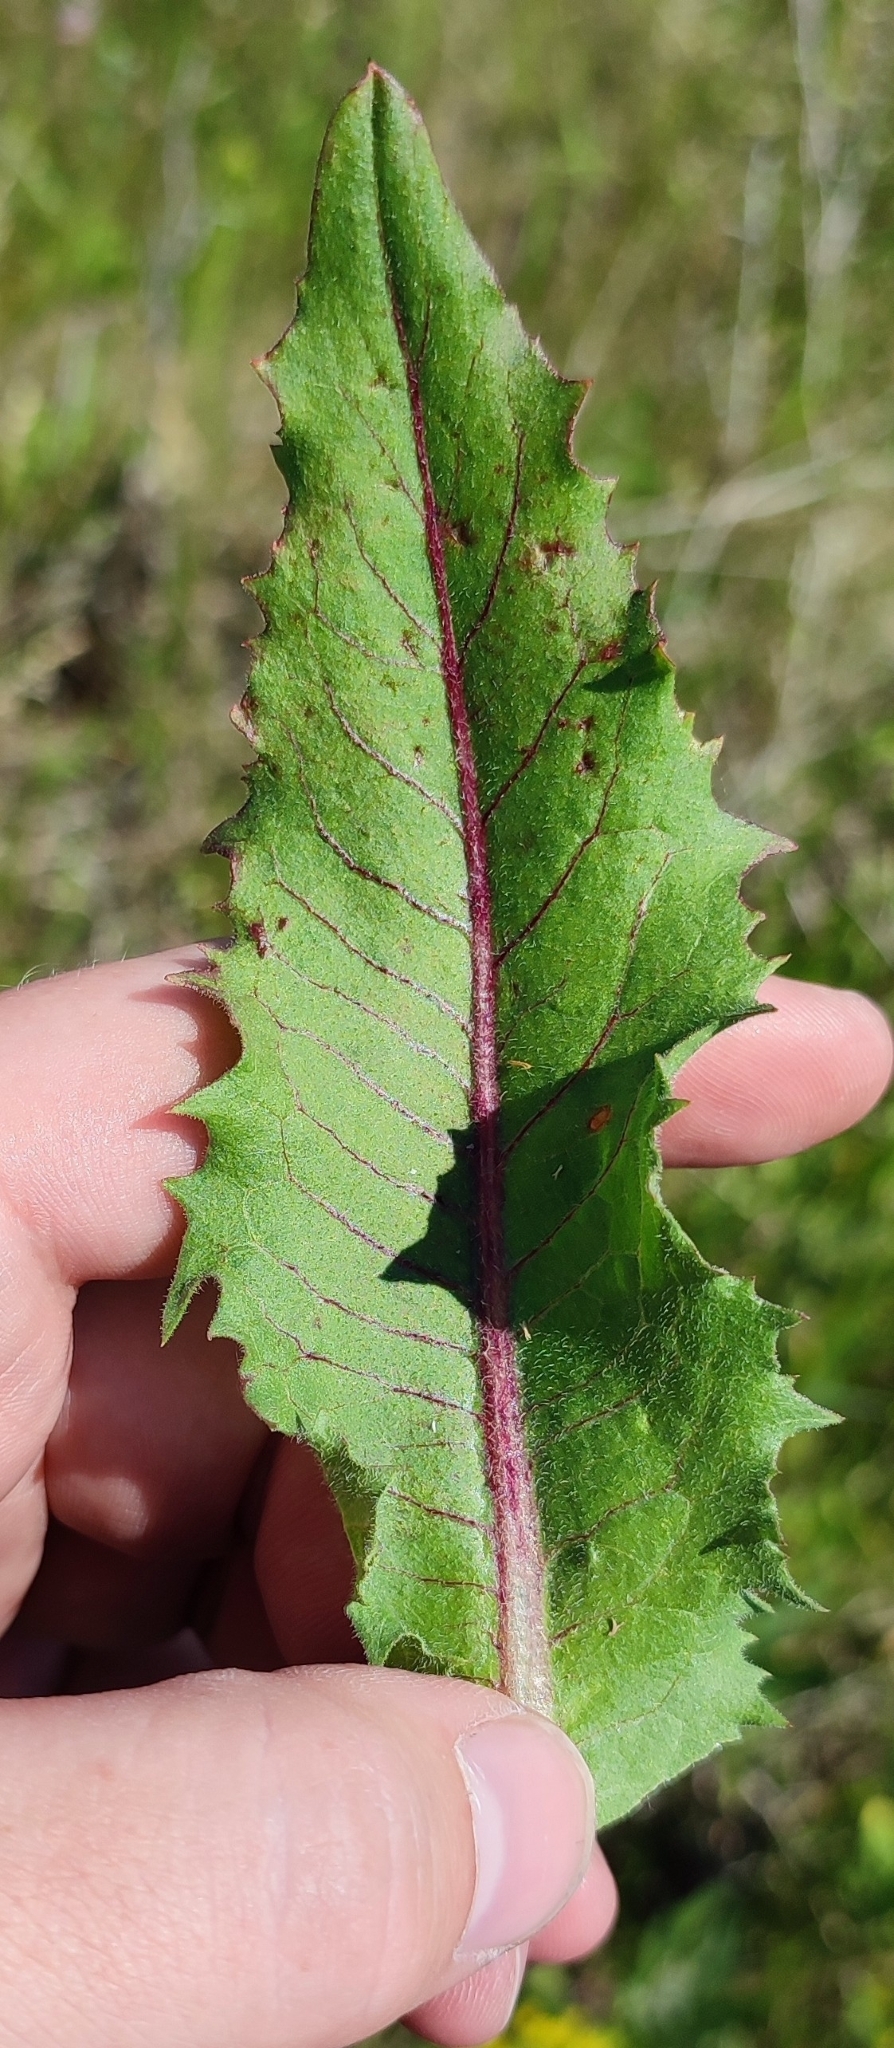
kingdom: Plantae
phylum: Tracheophyta
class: Magnoliopsida
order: Asterales
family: Asteraceae
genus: Cichorium
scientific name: Cichorium intybus
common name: Chicory
